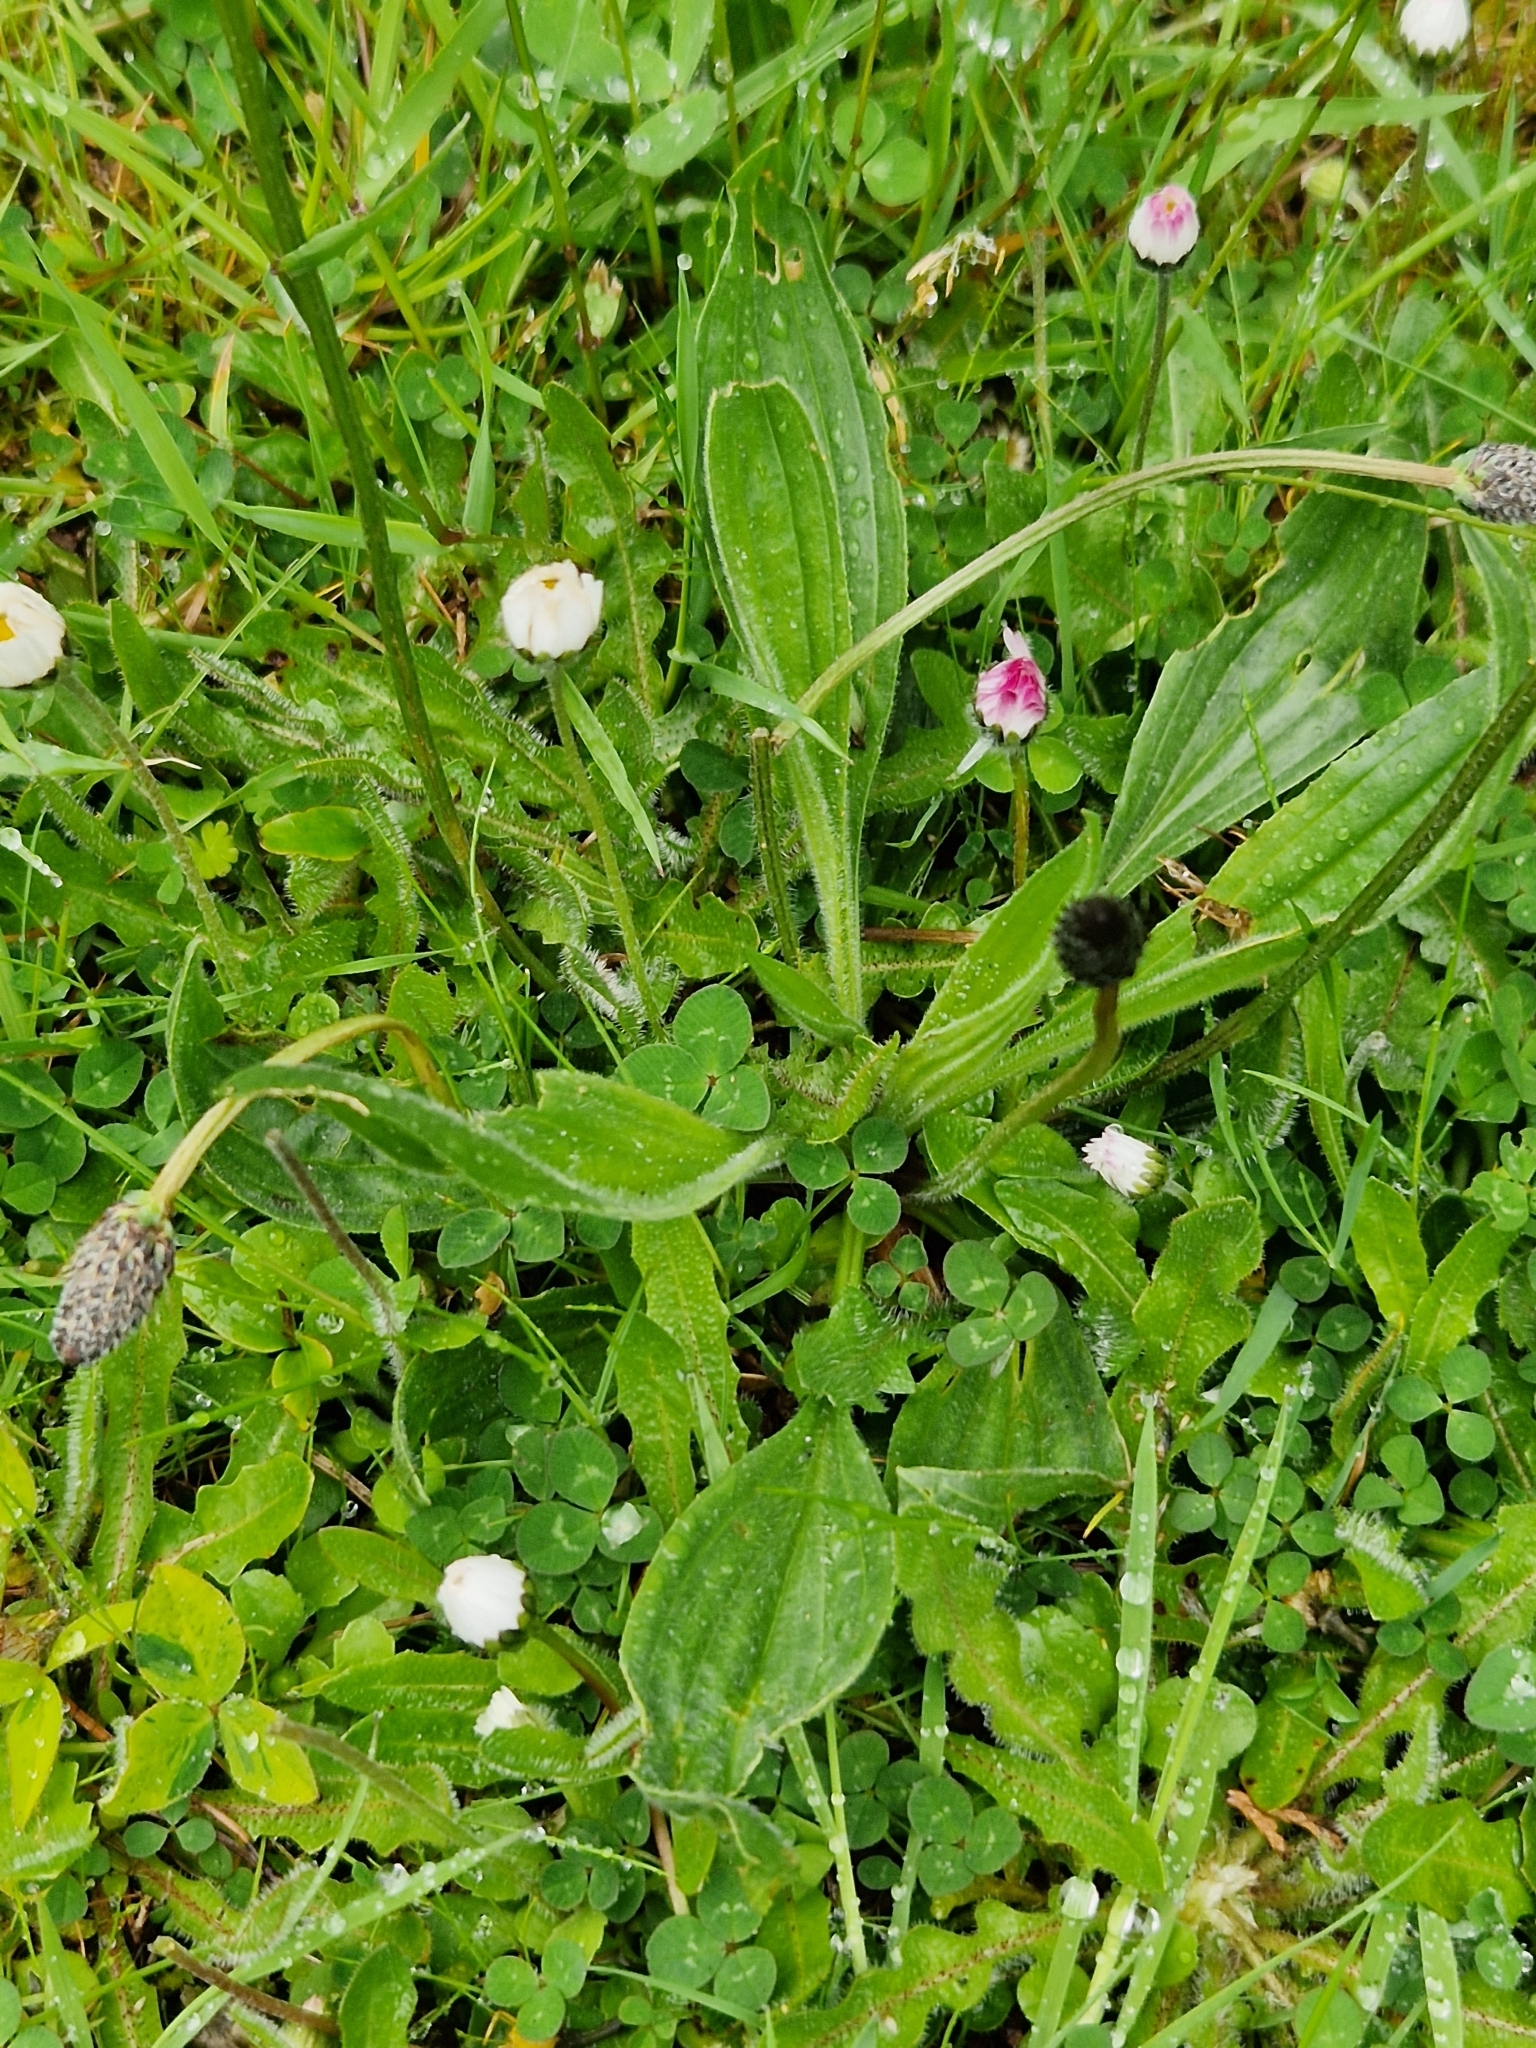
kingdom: Plantae
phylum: Tracheophyta
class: Magnoliopsida
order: Lamiales
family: Plantaginaceae
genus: Plantago
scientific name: Plantago lanceolata
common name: Ribwort plantain
